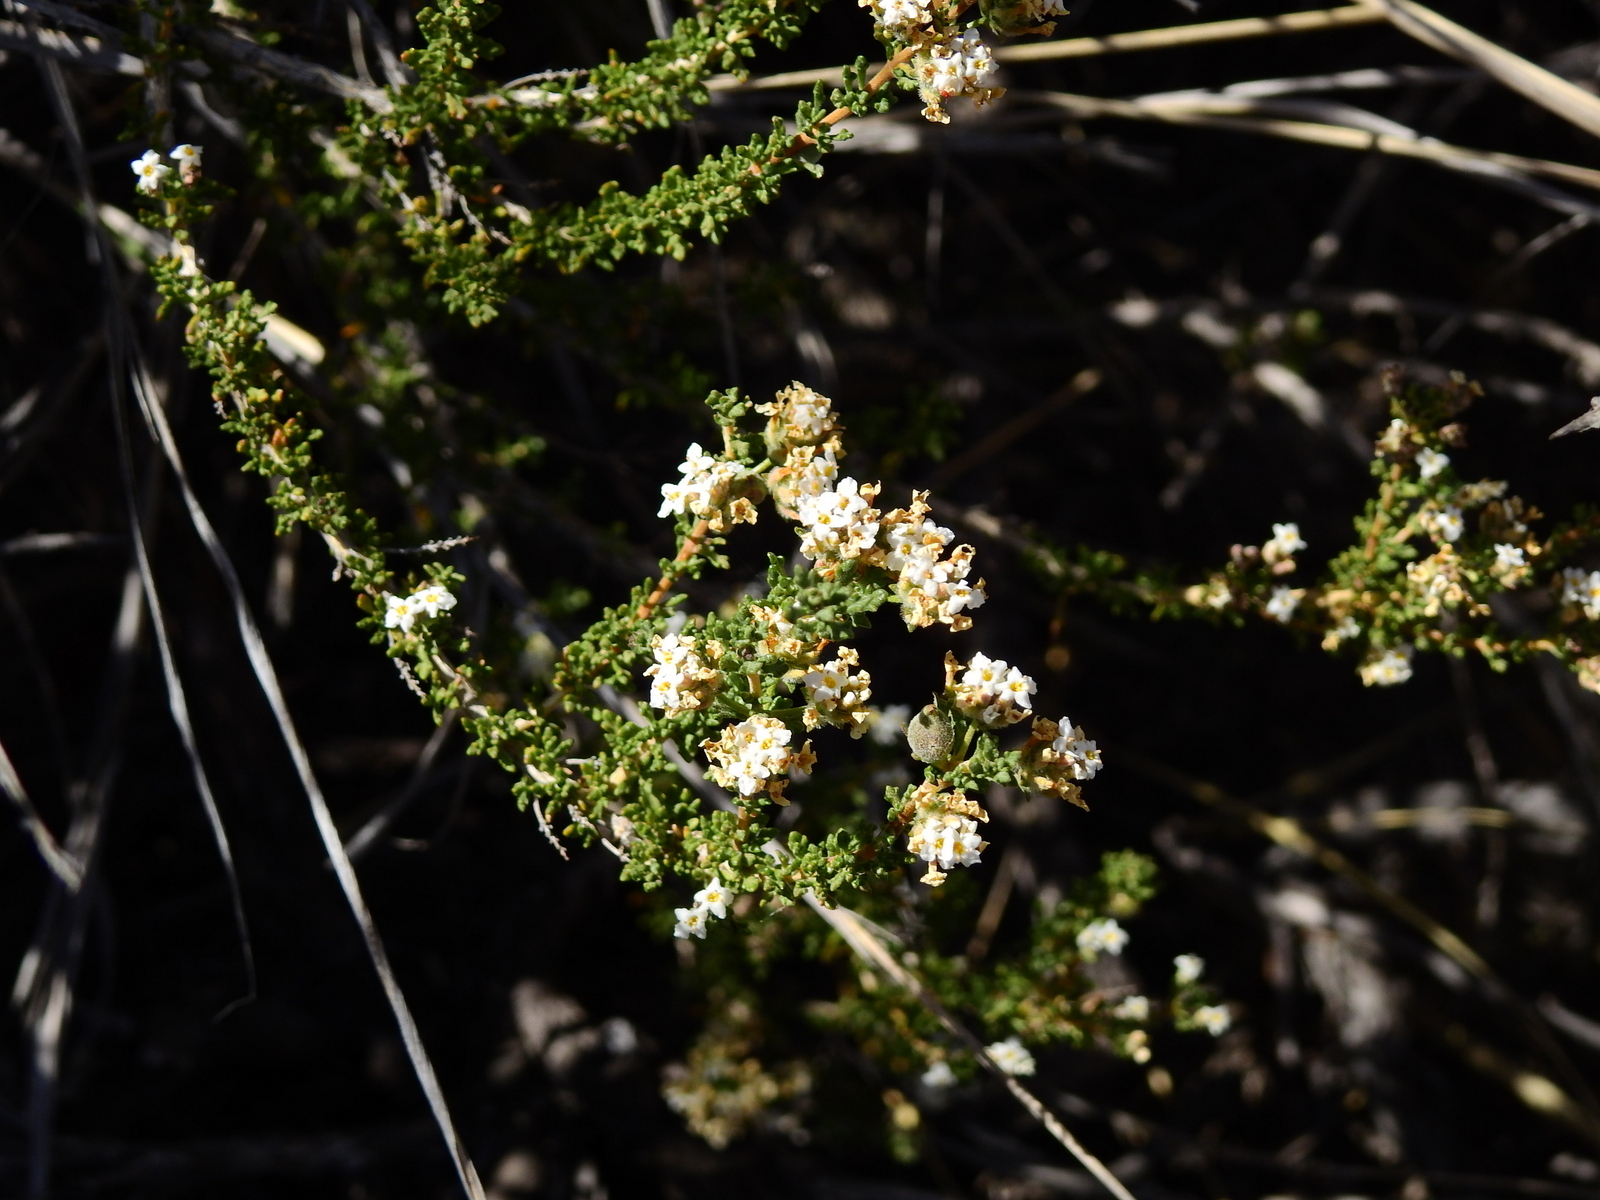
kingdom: Plantae
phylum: Tracheophyta
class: Magnoliopsida
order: Lamiales
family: Verbenaceae
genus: Acantholippia
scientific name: Acantholippia seriphioides
